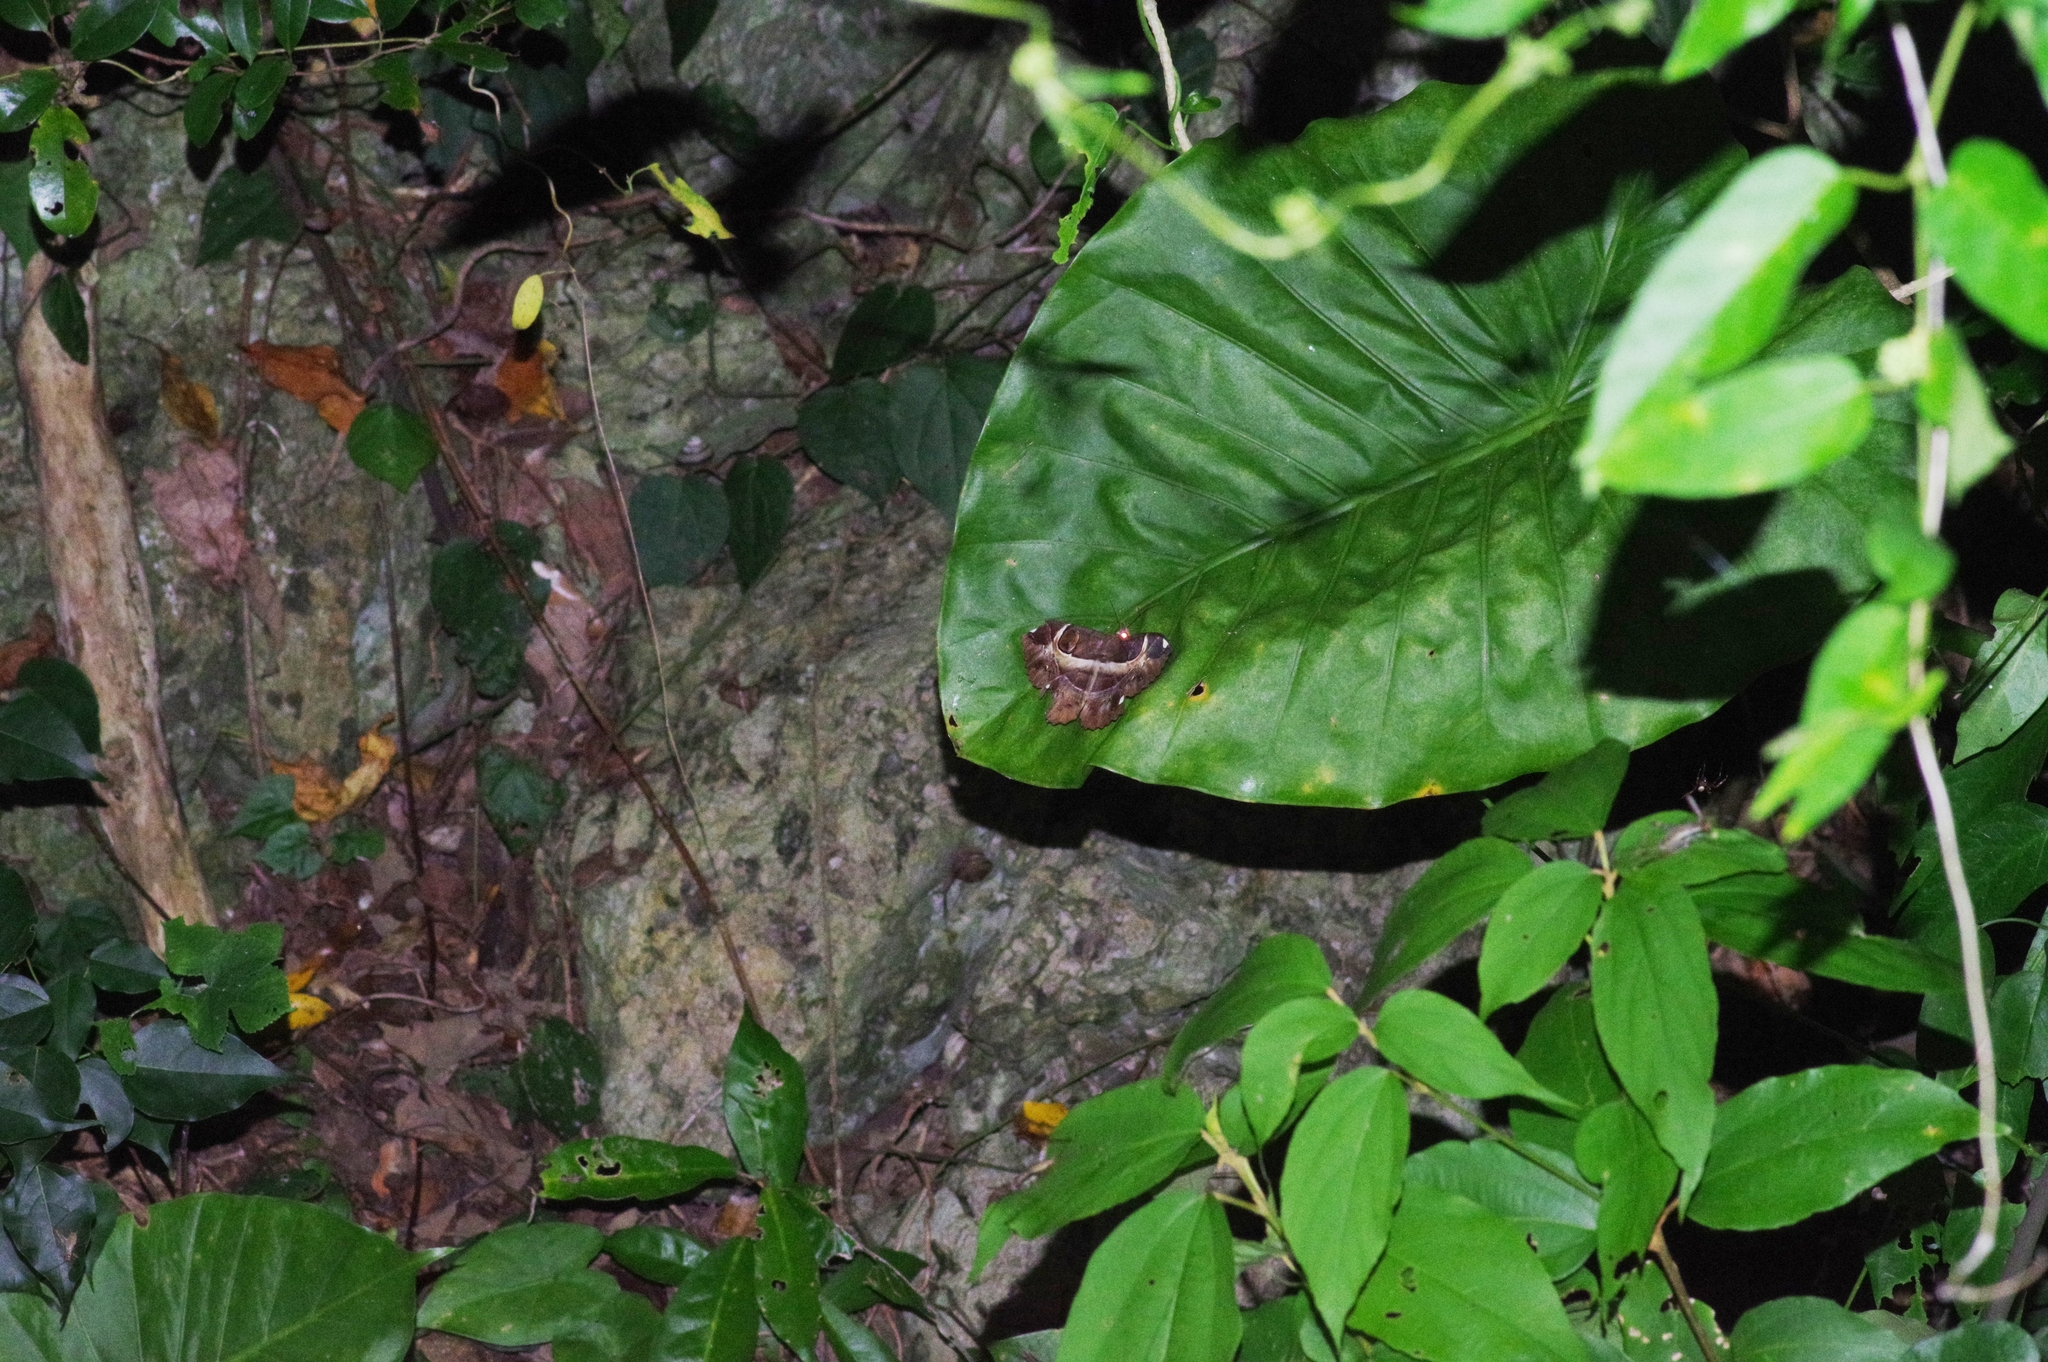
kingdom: Animalia
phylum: Arthropoda
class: Insecta
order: Lepidoptera
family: Erebidae
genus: Erebus
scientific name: Erebus ephesperis
